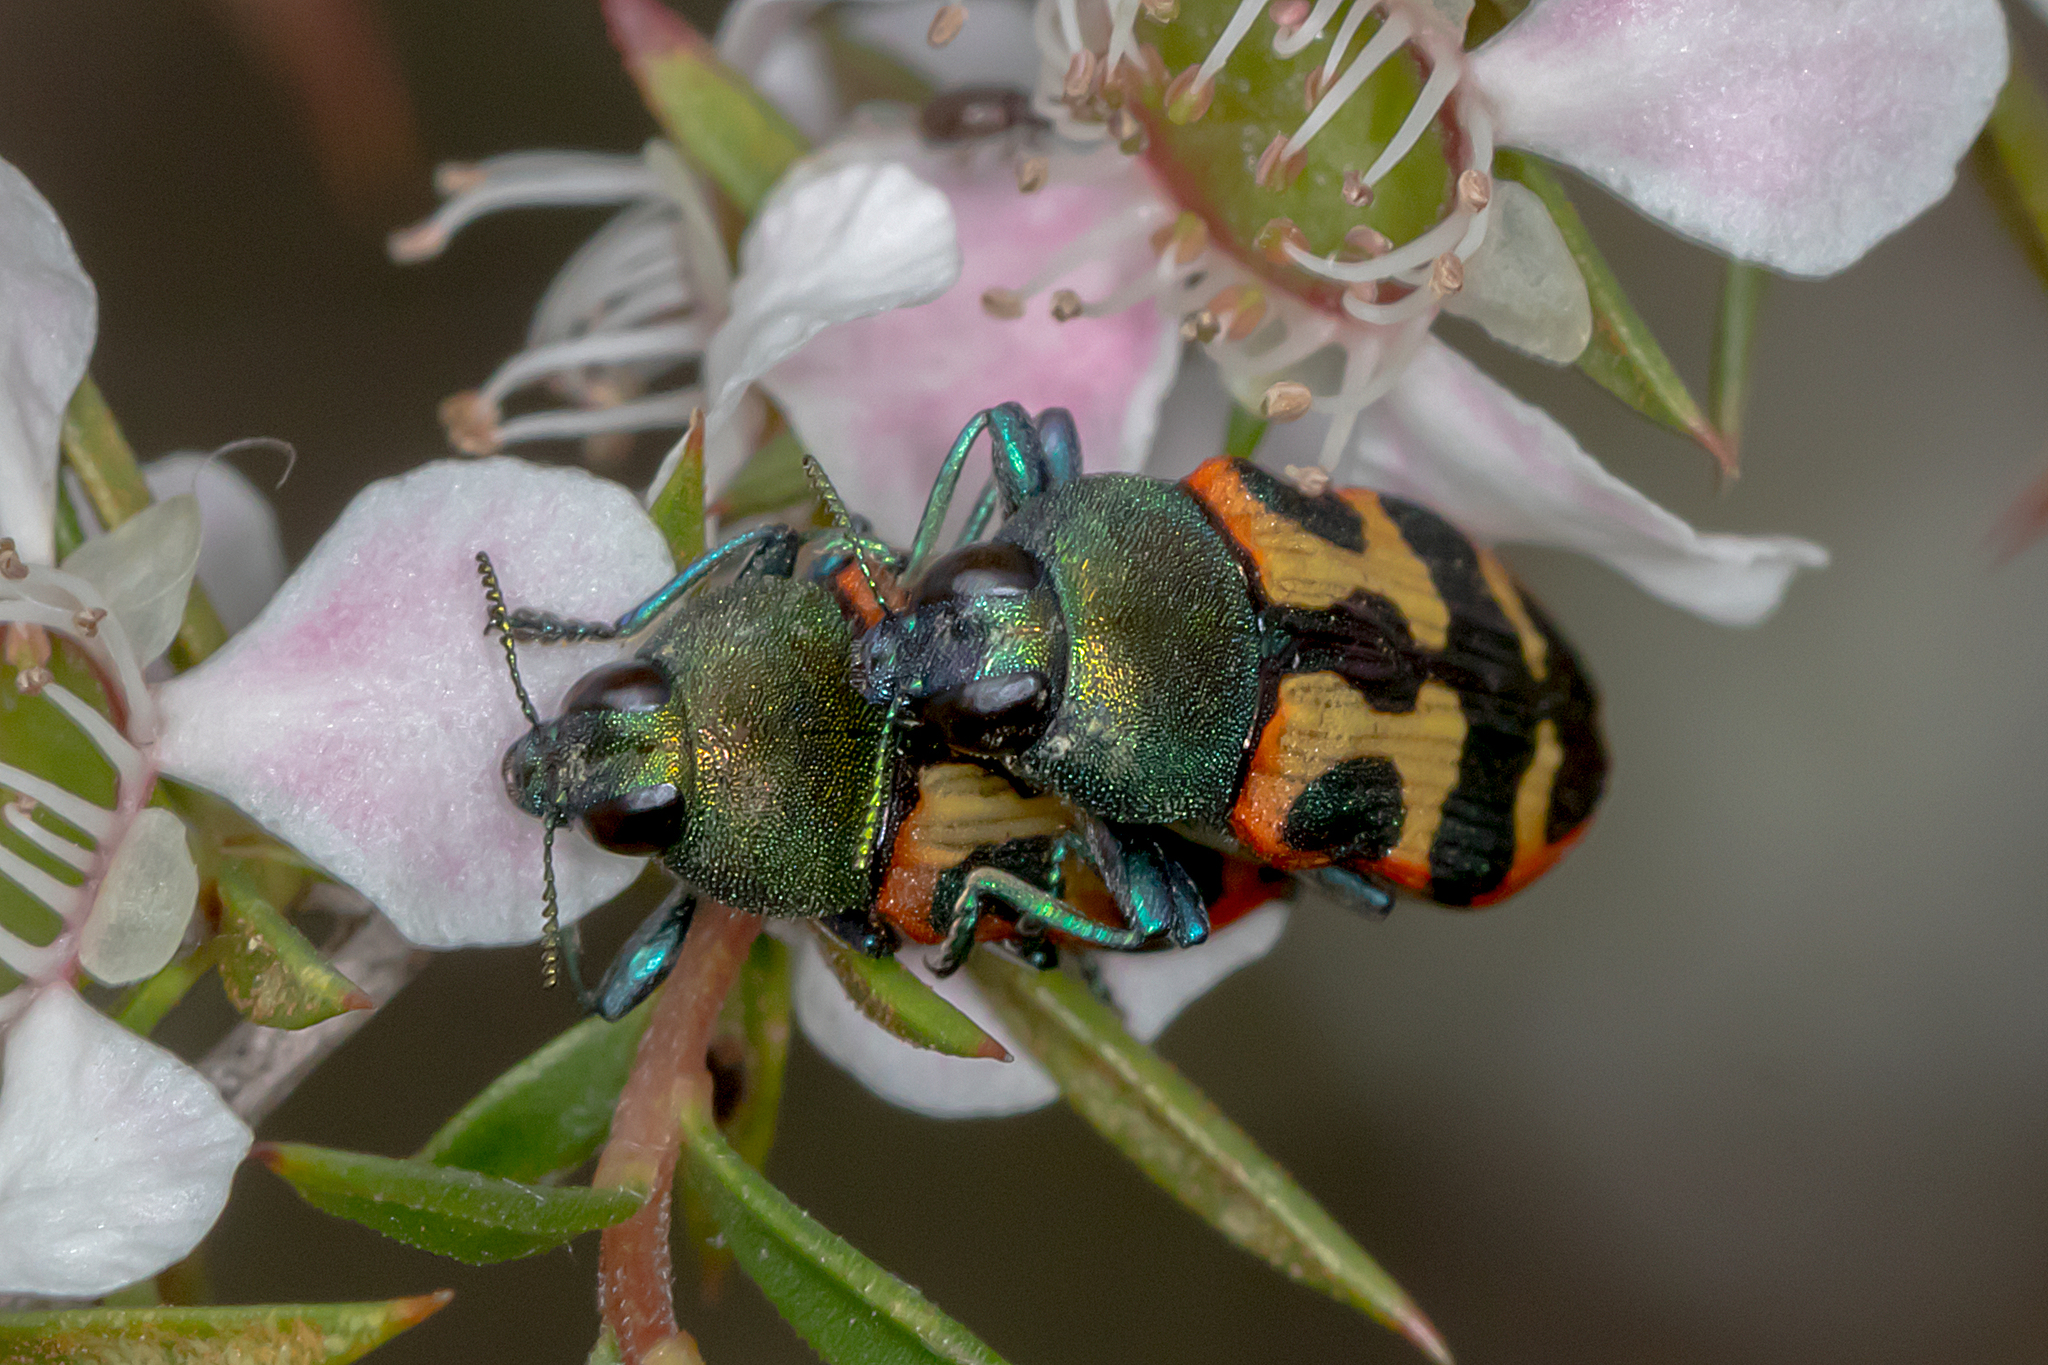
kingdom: Animalia
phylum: Arthropoda
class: Insecta
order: Coleoptera
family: Buprestidae
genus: Castiarina
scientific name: Castiarina sexplagiata
